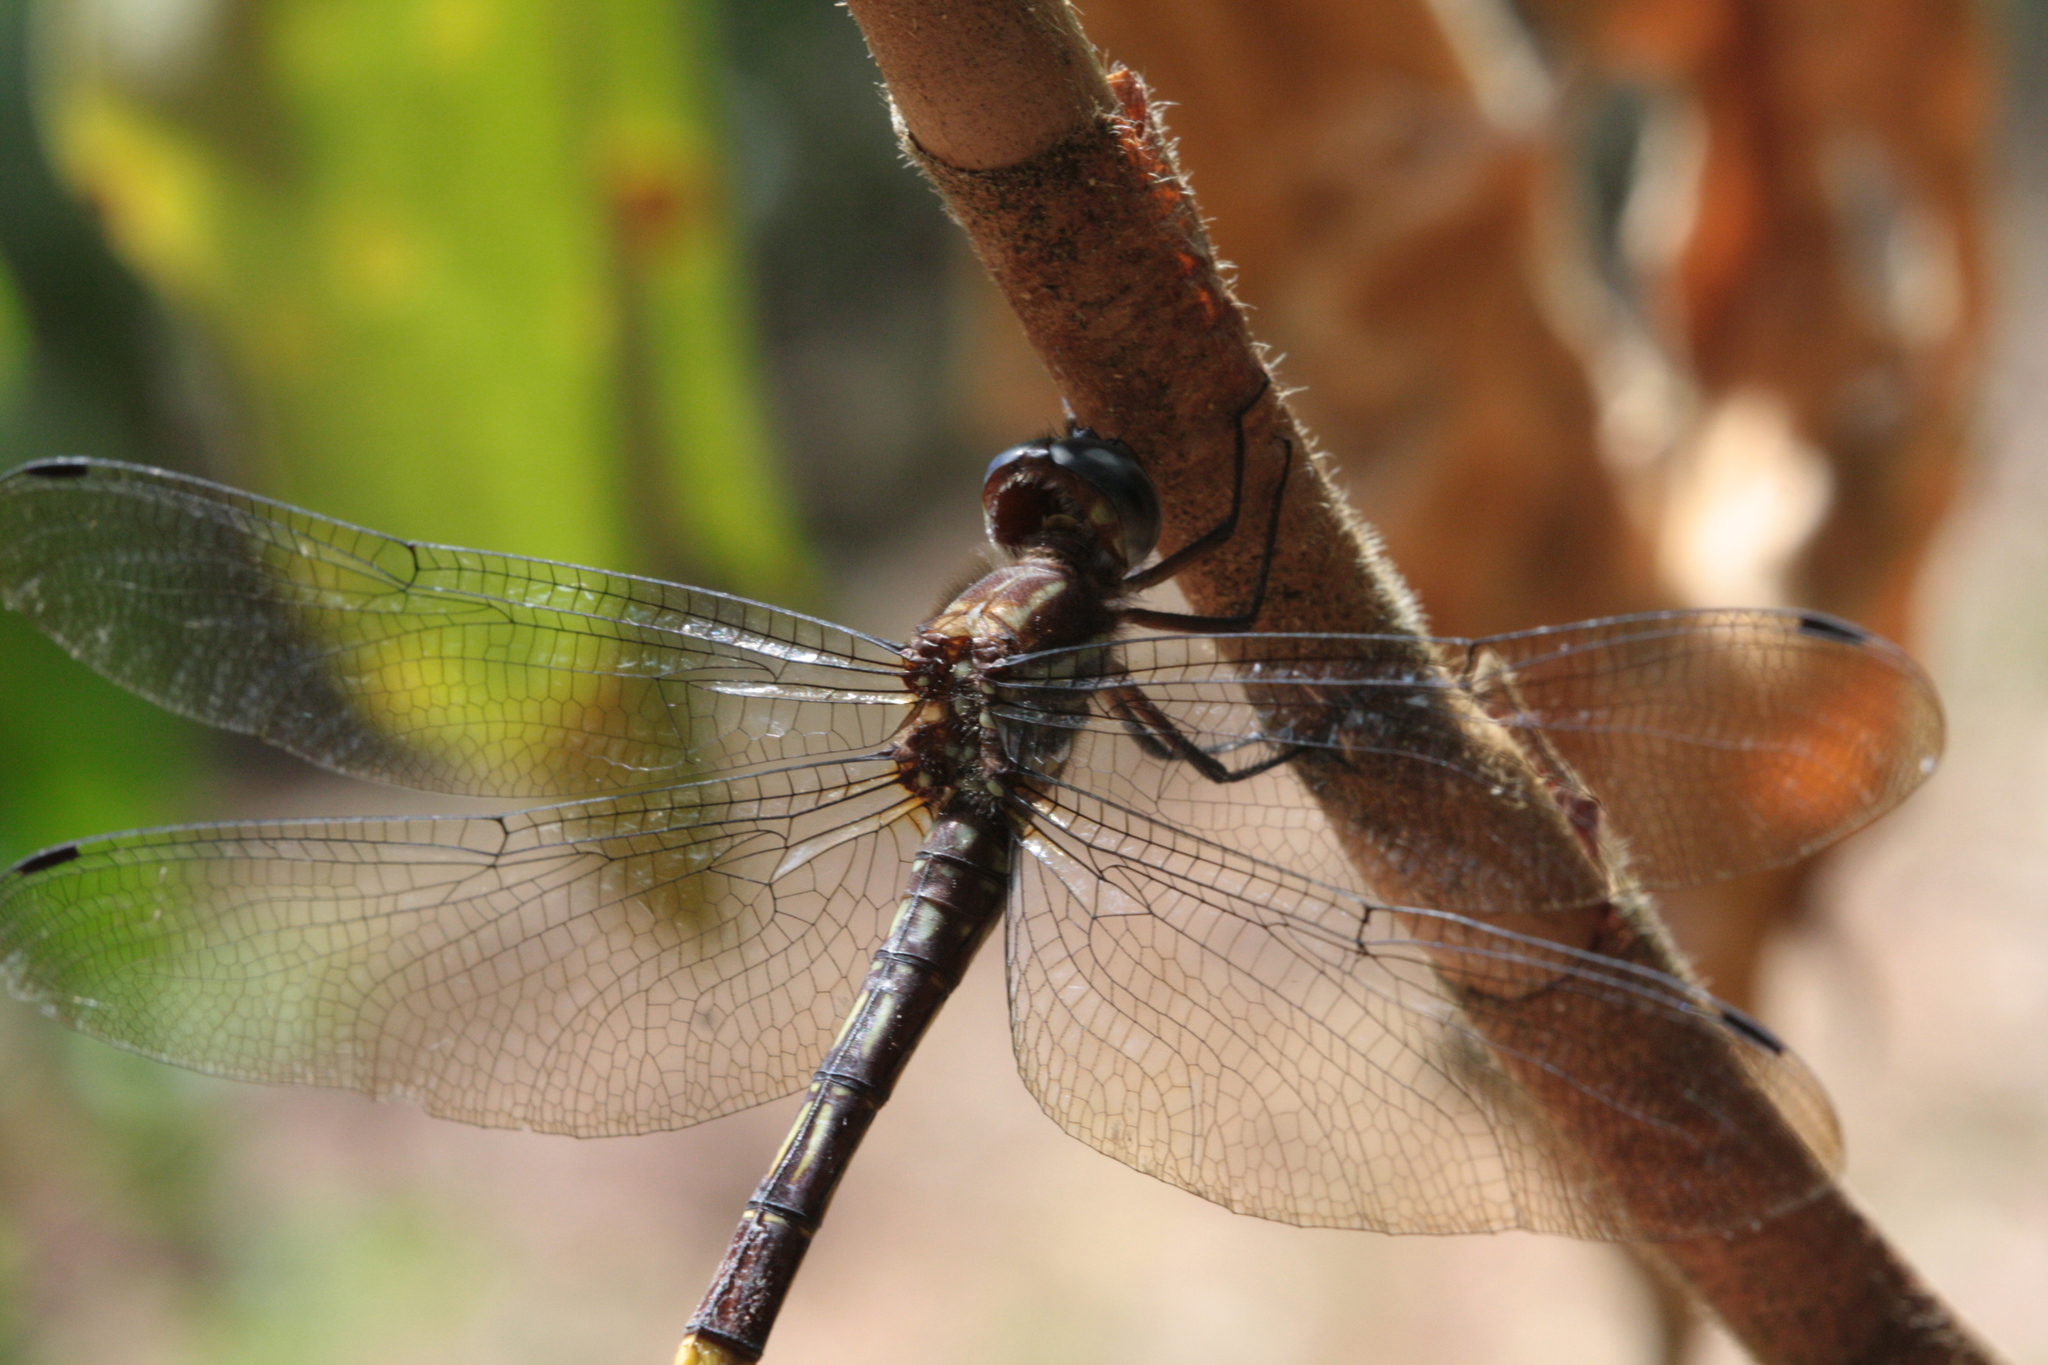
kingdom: Animalia
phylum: Arthropoda
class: Insecta
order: Odonata
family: Libellulidae
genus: Brechmorhoga
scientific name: Brechmorhoga rapax
